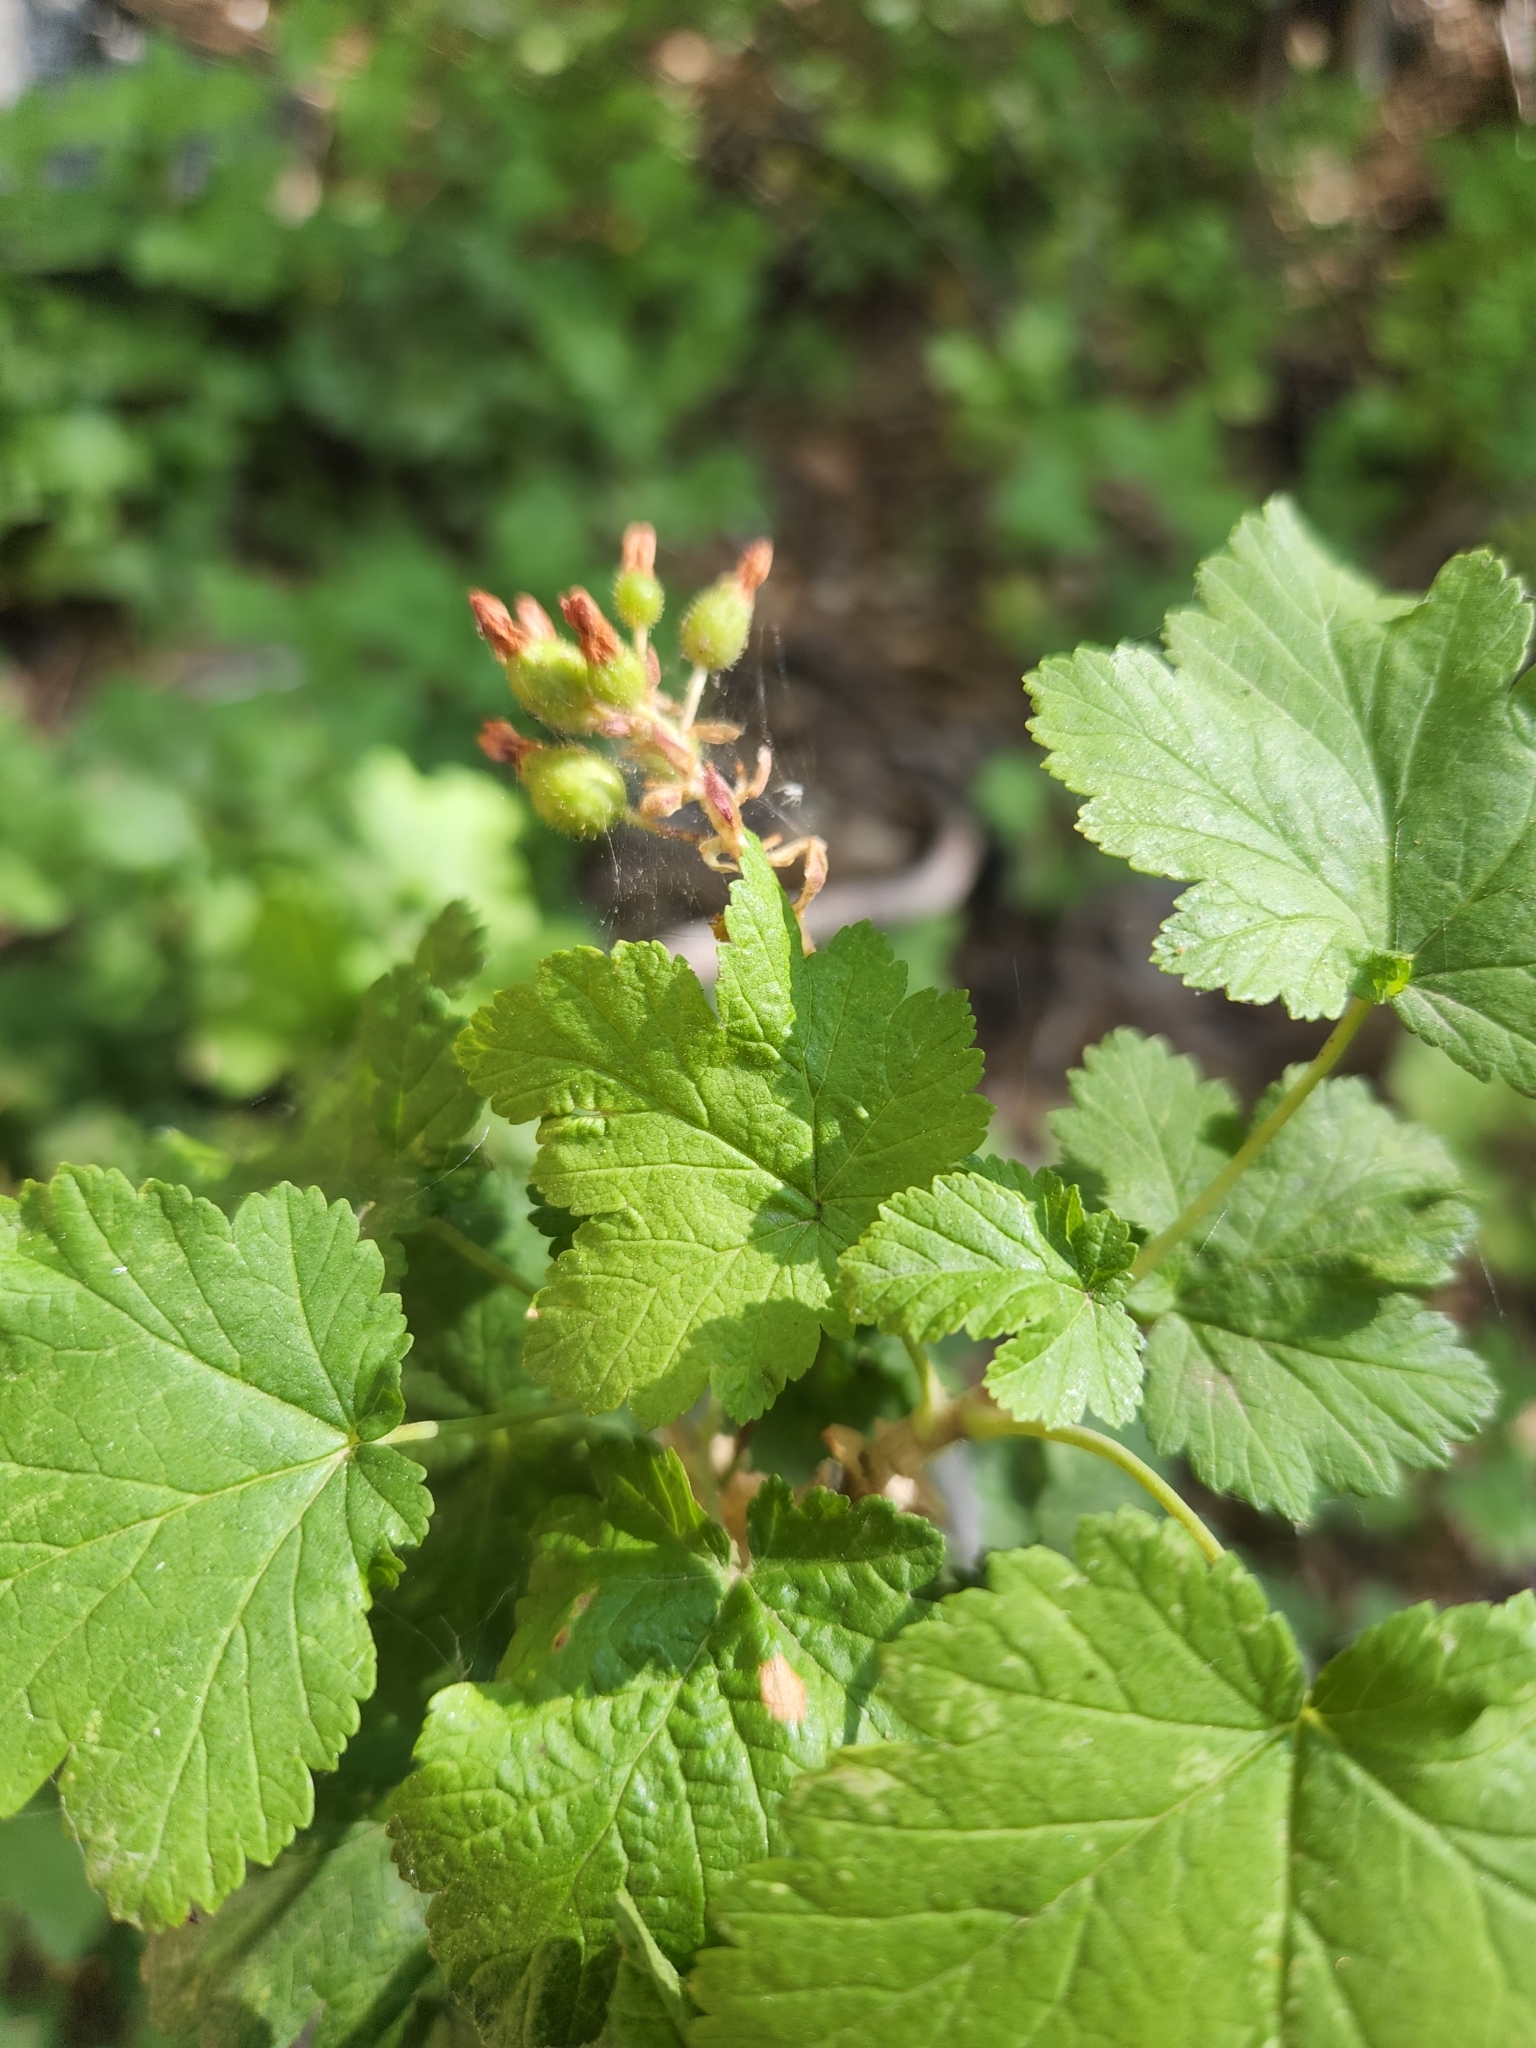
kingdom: Plantae
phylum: Tracheophyta
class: Magnoliopsida
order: Saxifragales
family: Grossulariaceae
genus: Ribes
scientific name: Ribes nevadense
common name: Mountain pink currant
